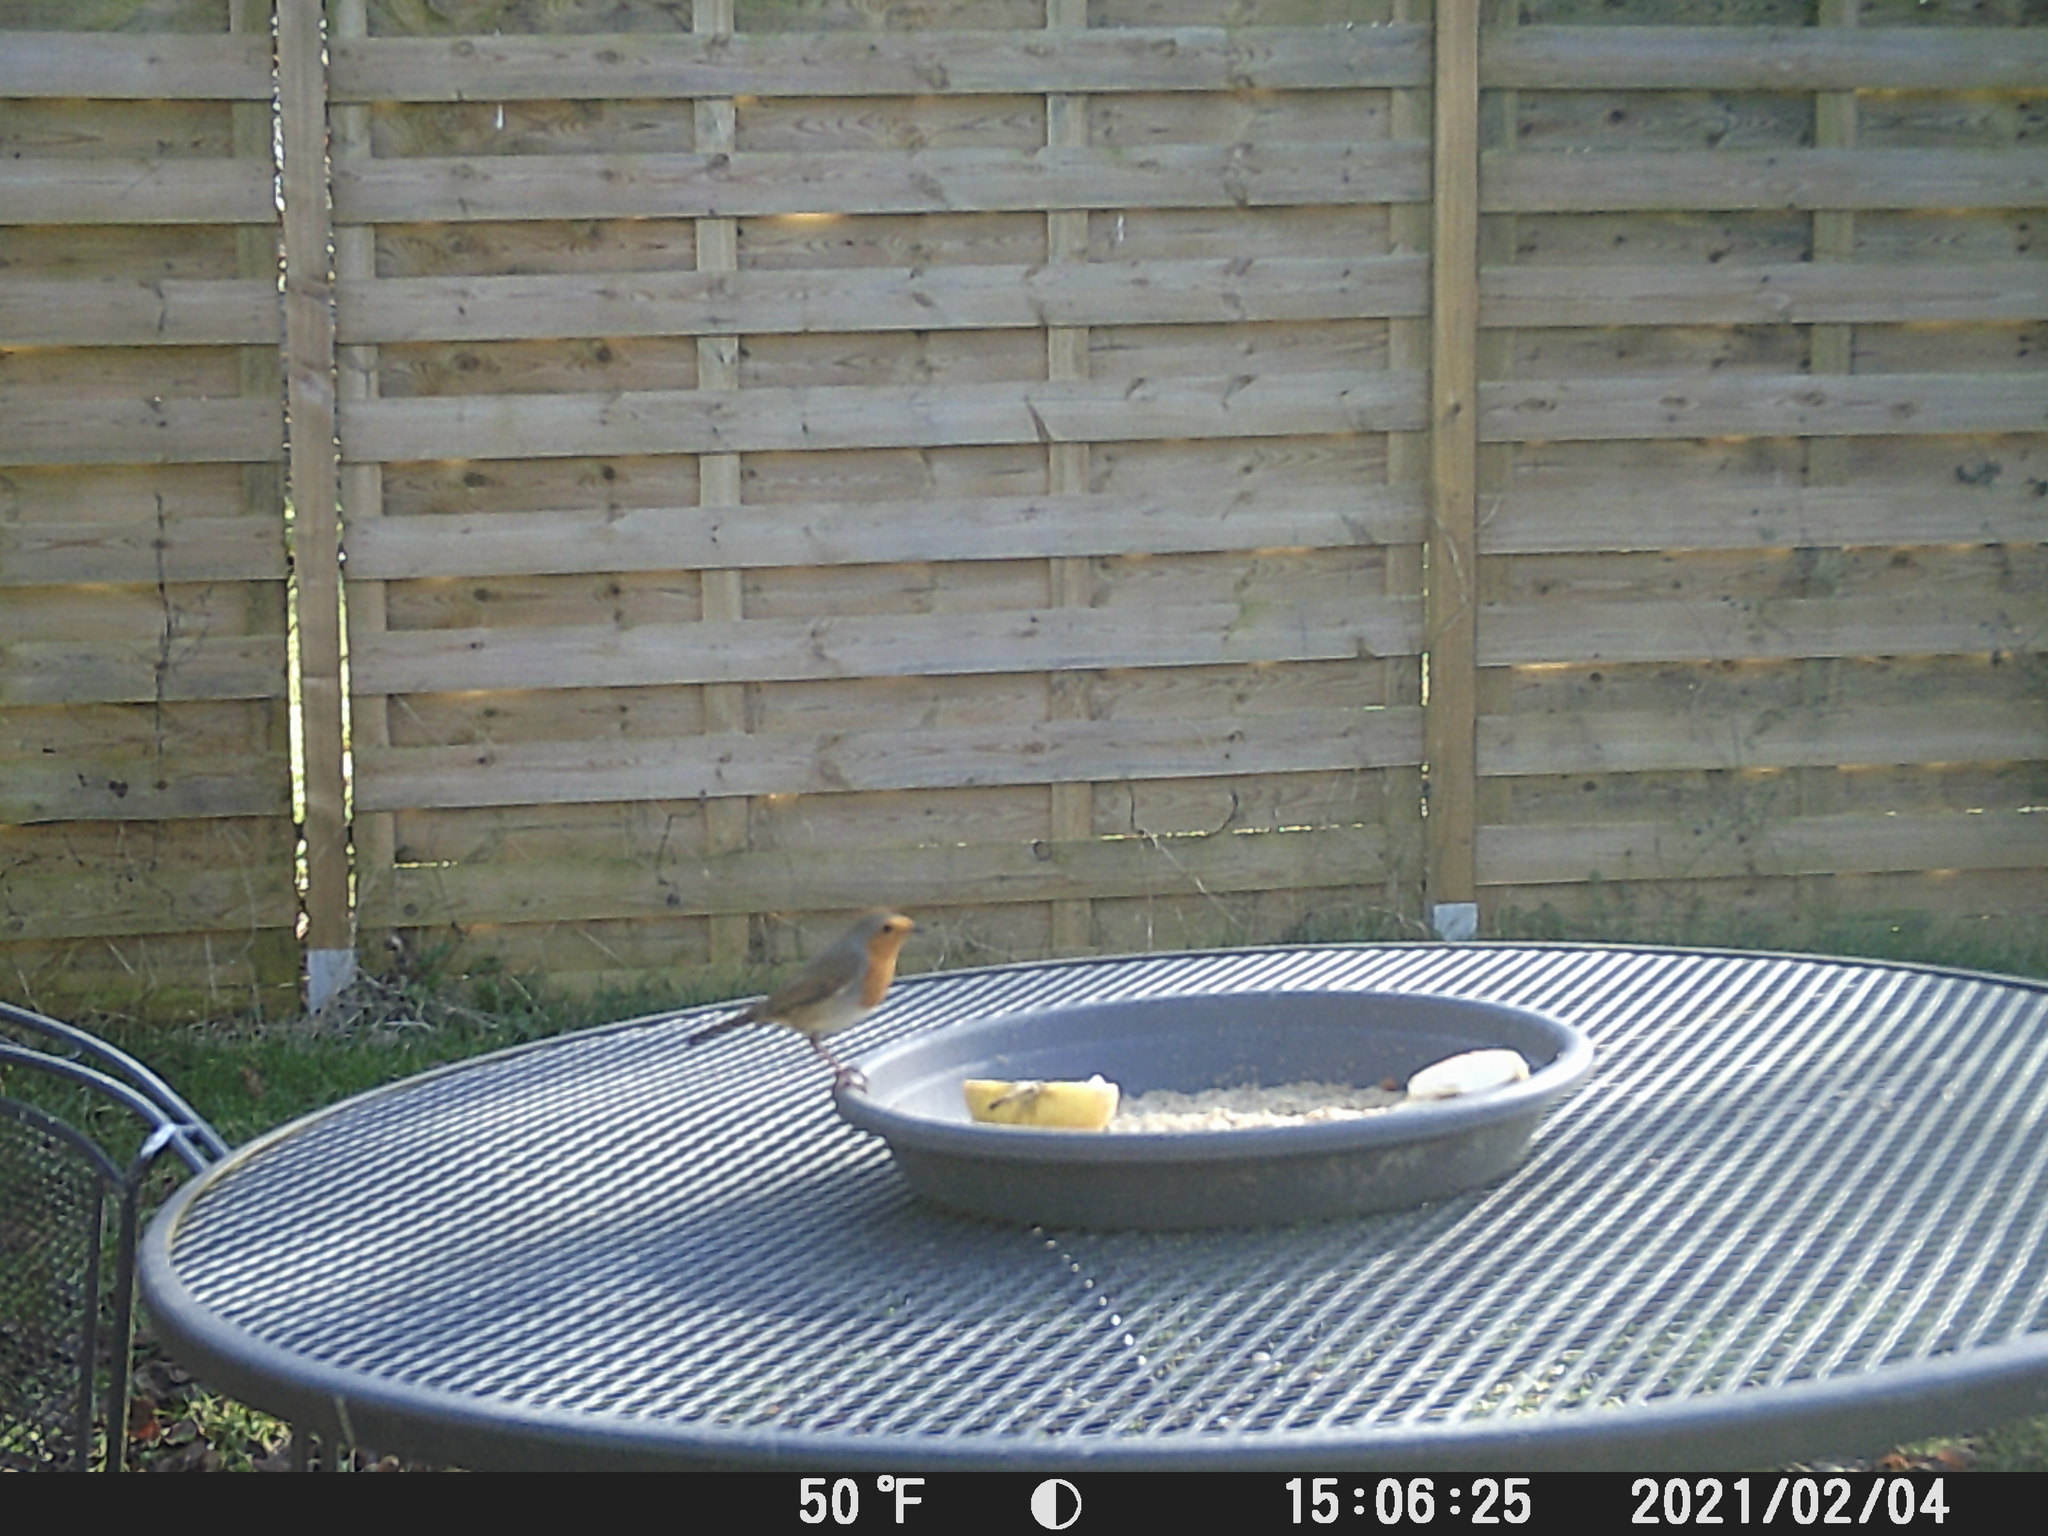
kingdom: Animalia
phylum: Chordata
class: Aves
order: Passeriformes
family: Muscicapidae
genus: Erithacus
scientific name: Erithacus rubecula
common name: European robin
